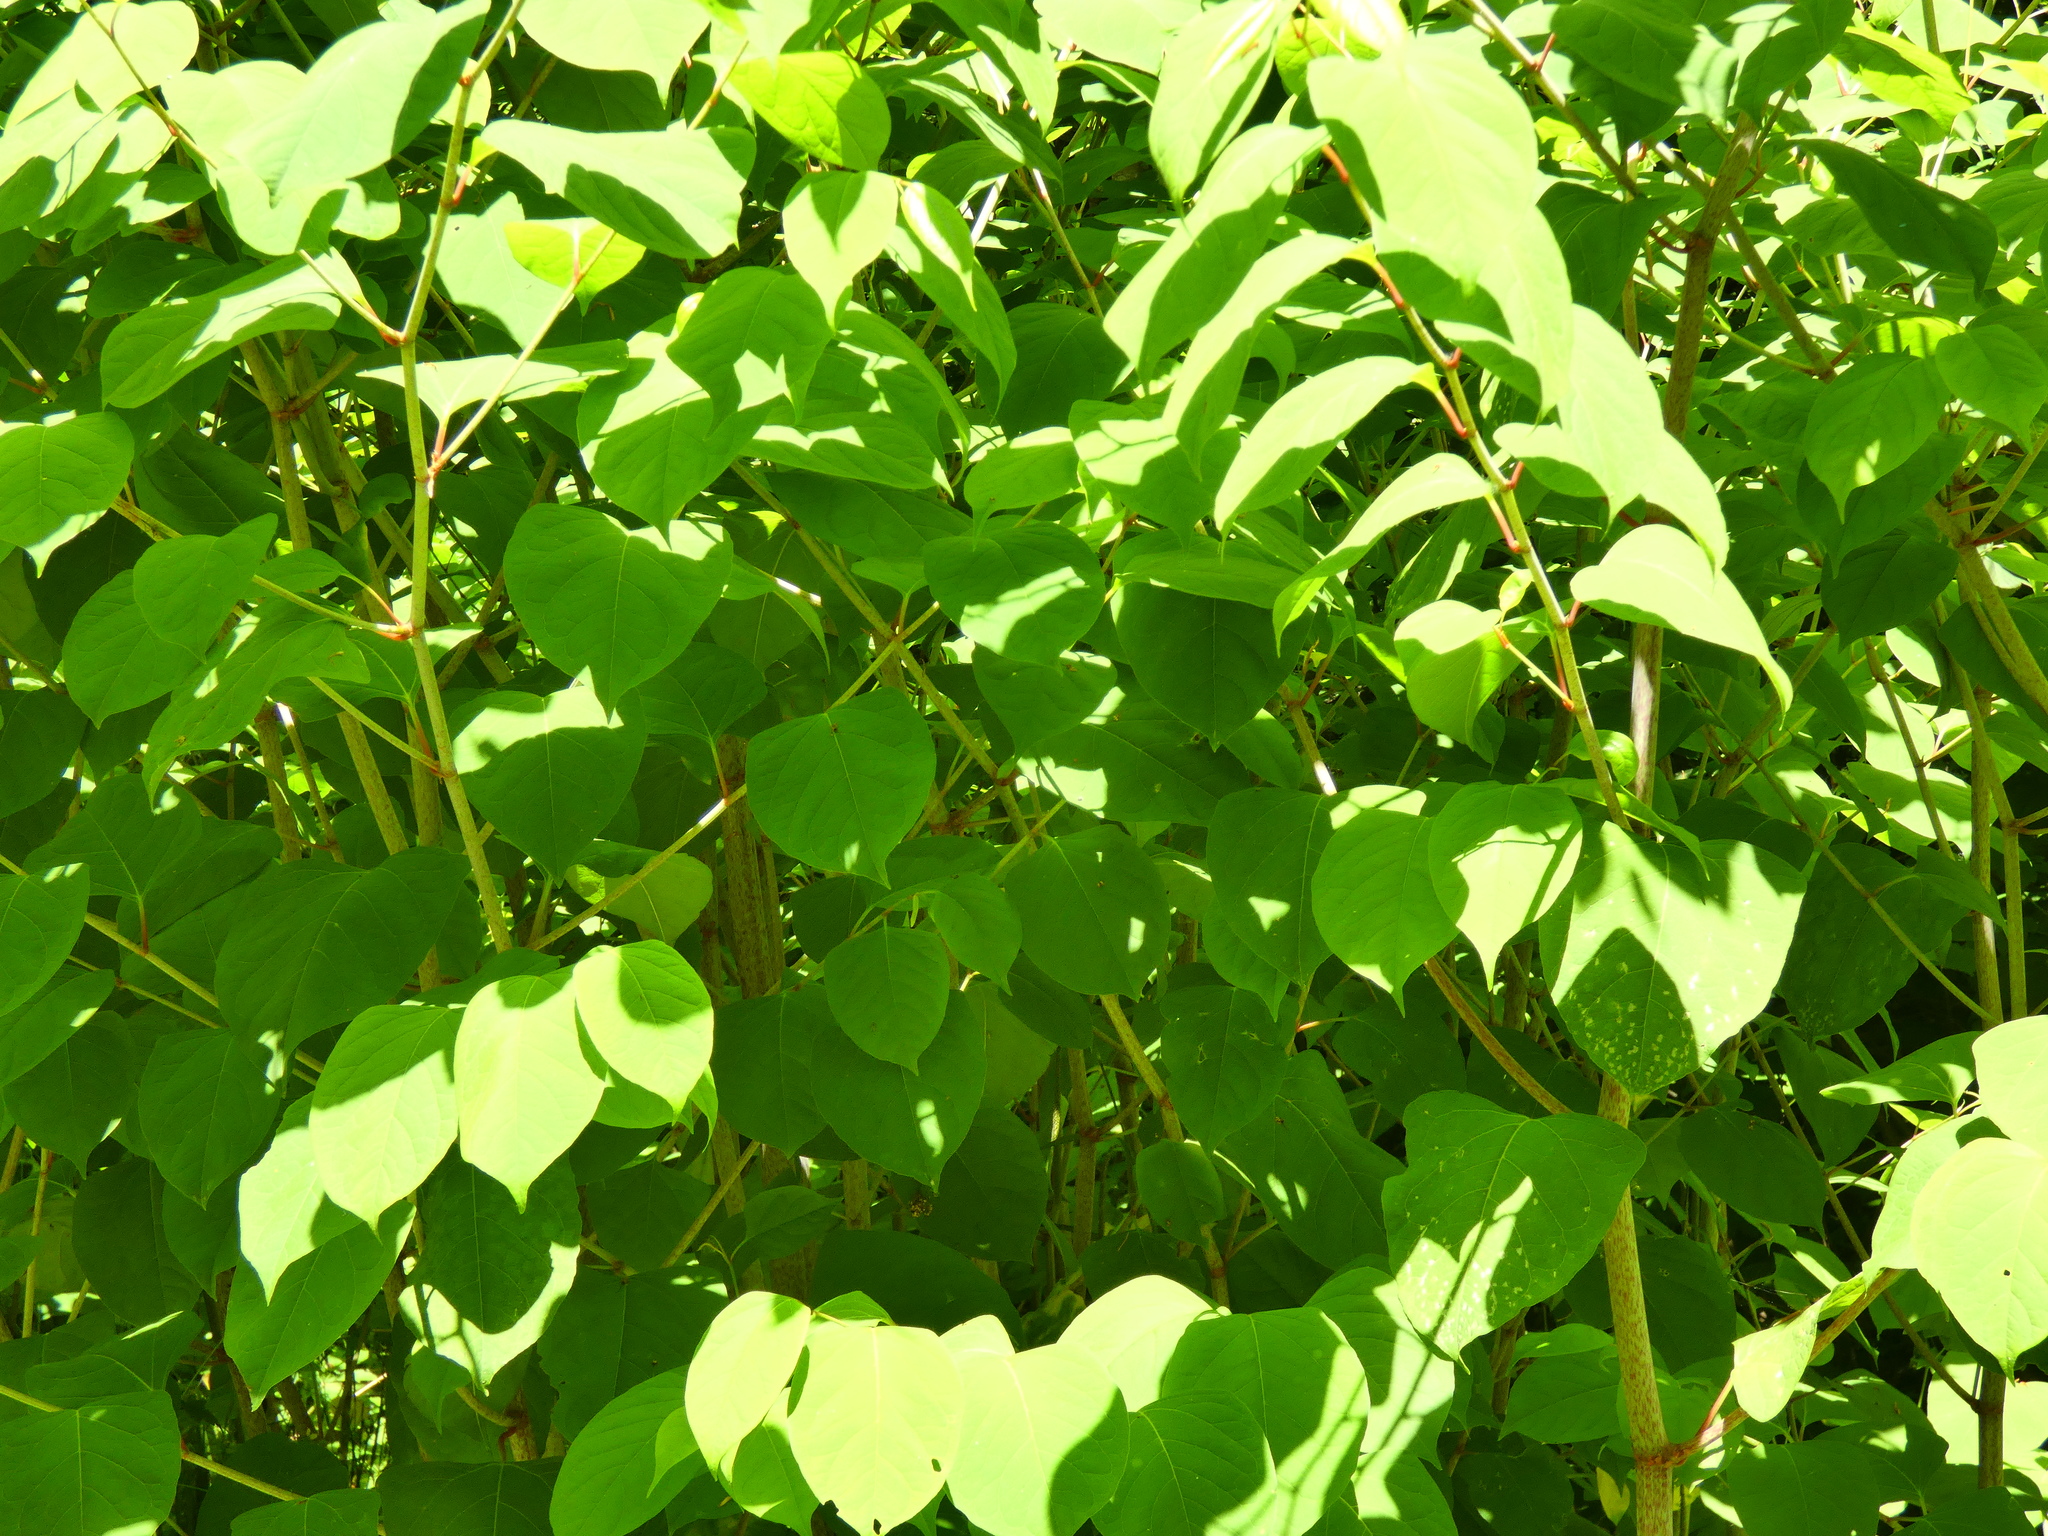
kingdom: Plantae
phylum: Tracheophyta
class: Magnoliopsida
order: Caryophyllales
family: Polygonaceae
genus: Reynoutria
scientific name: Reynoutria bohemica
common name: Bohemian knotweed
